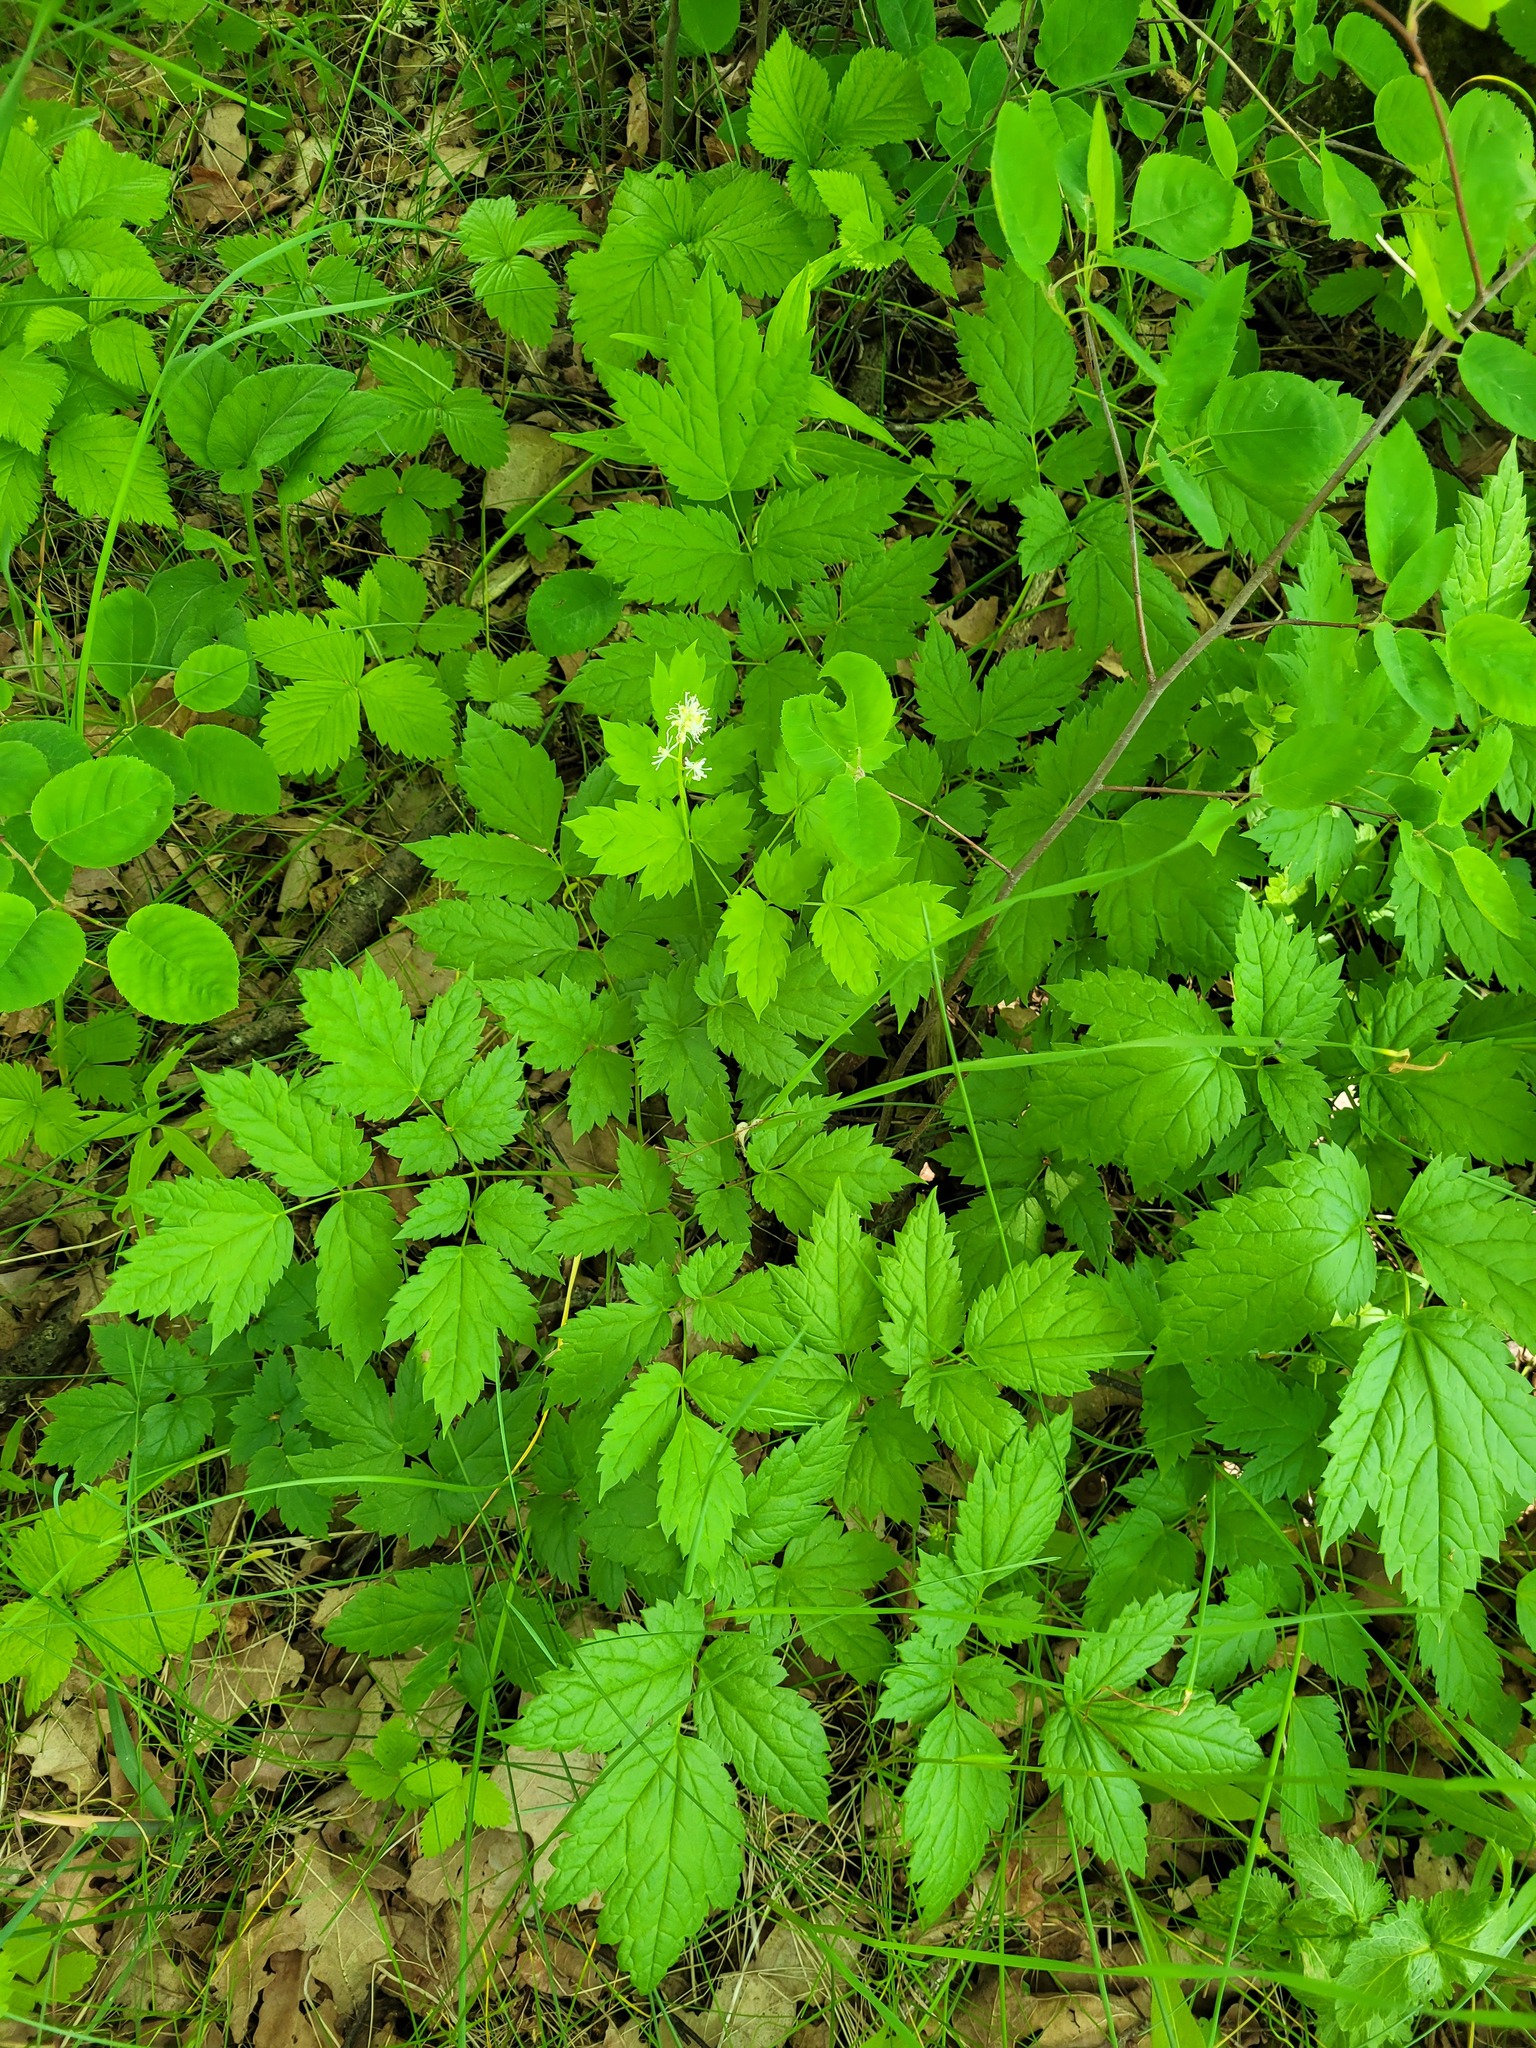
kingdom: Plantae
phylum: Tracheophyta
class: Magnoliopsida
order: Ranunculales
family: Ranunculaceae
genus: Actaea
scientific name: Actaea spicata
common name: Baneberry
